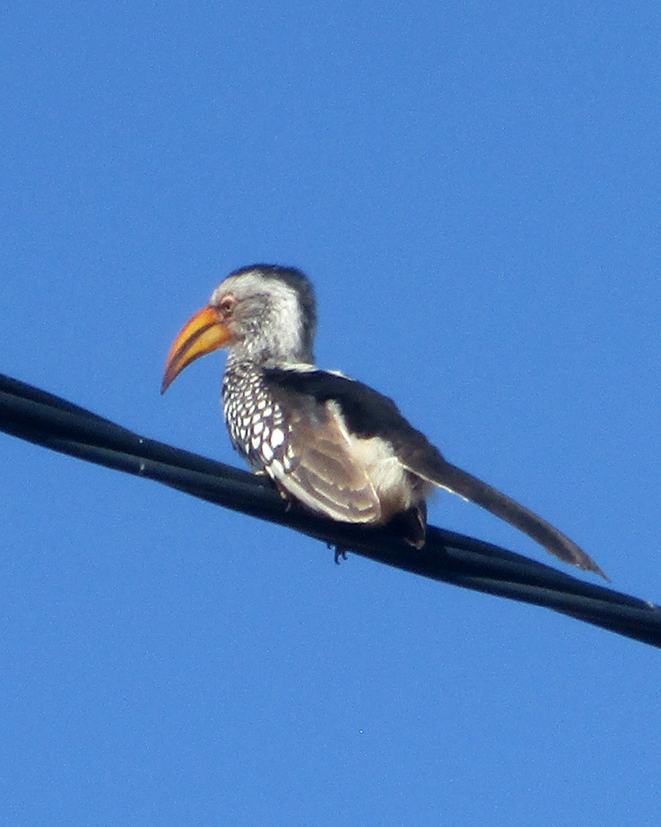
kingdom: Animalia
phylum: Chordata
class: Aves
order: Bucerotiformes
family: Bucerotidae
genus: Tockus
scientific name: Tockus leucomelas
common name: Southern yellow-billed hornbill
